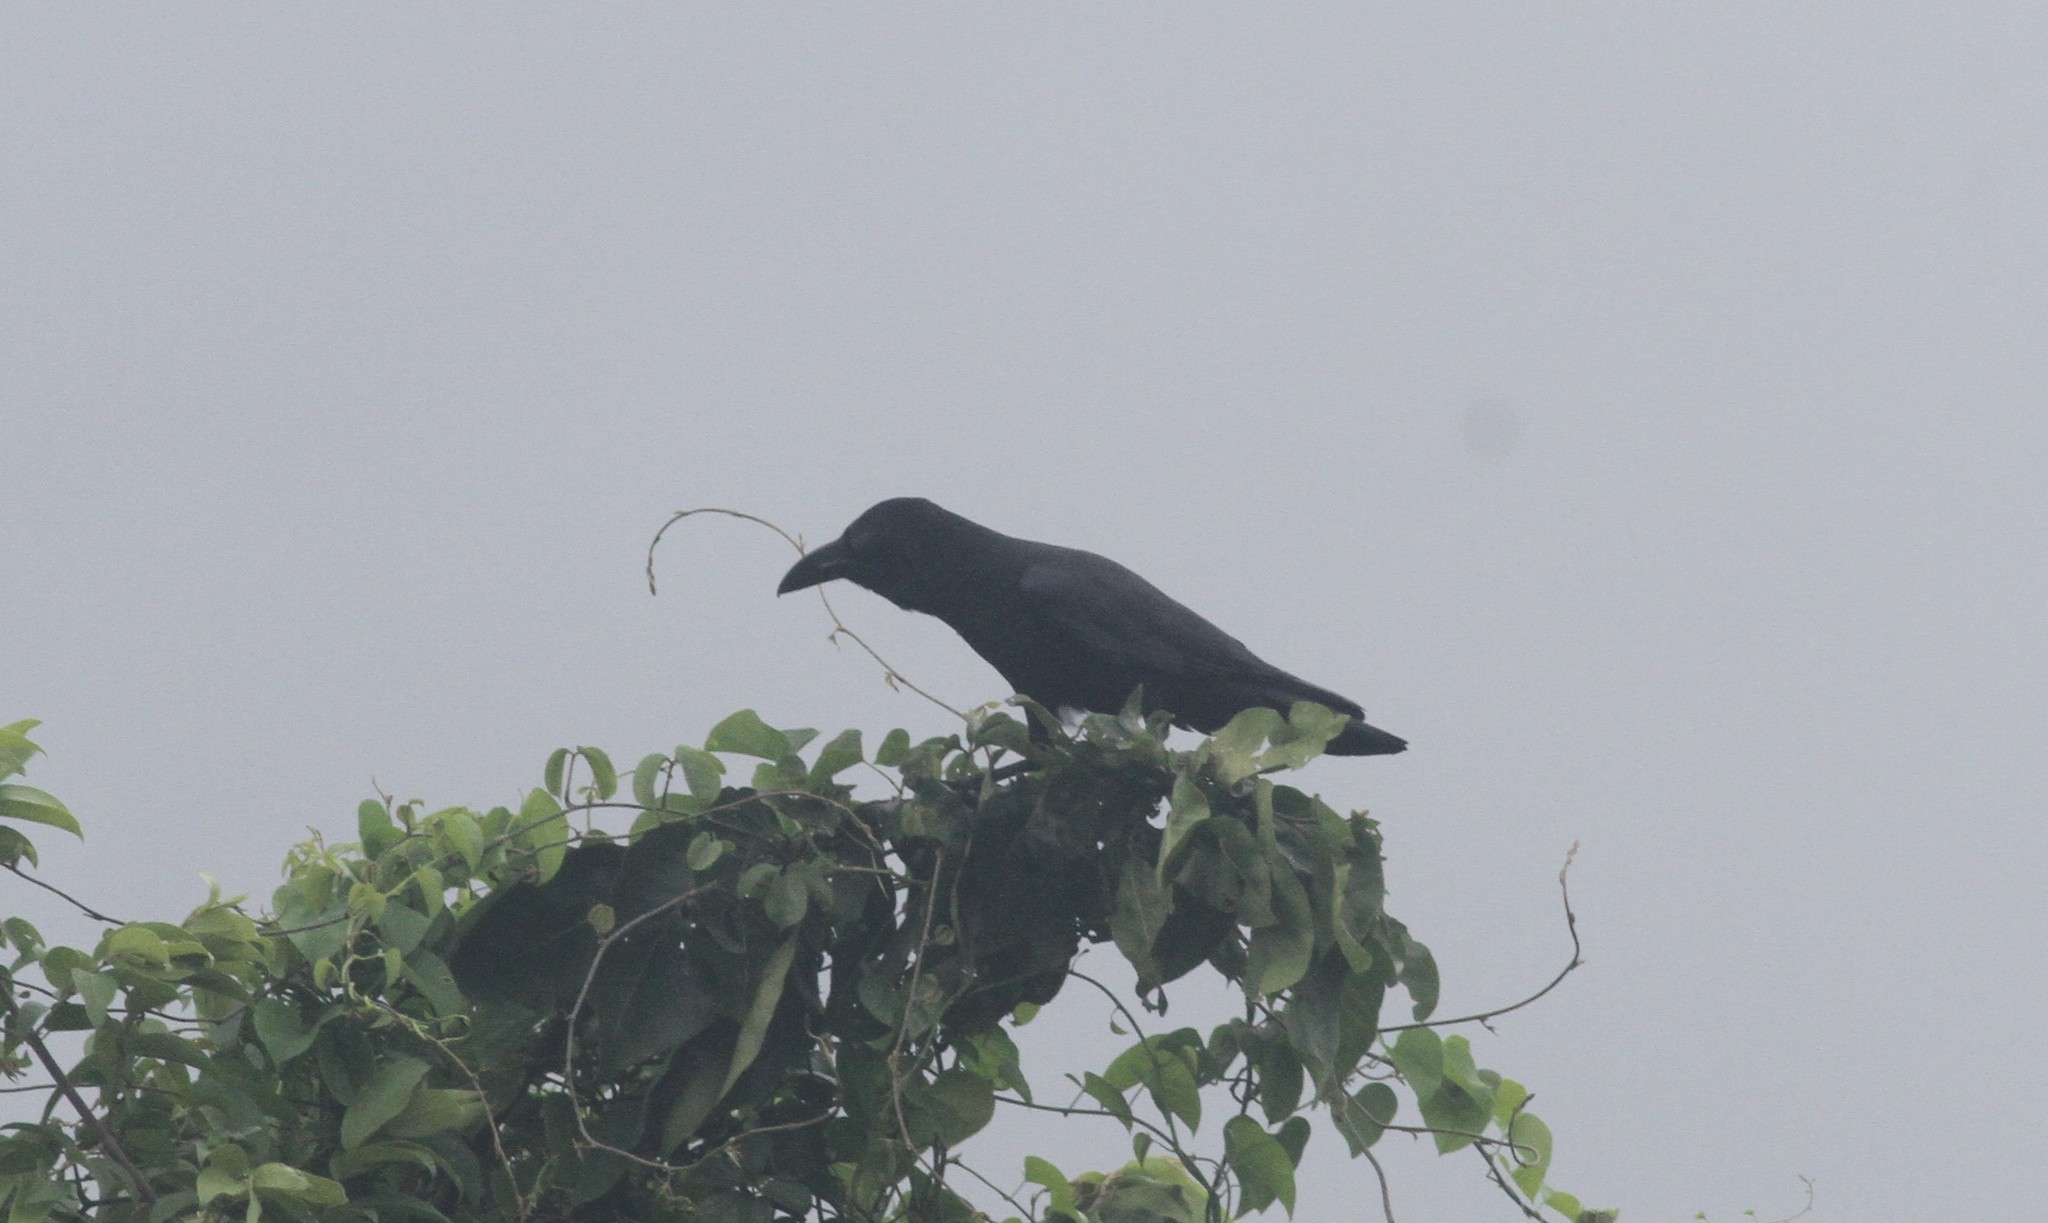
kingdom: Animalia
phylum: Chordata
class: Aves
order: Passeriformes
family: Corvidae
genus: Corvus
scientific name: Corvus macrorhynchos
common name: Large-billed crow
